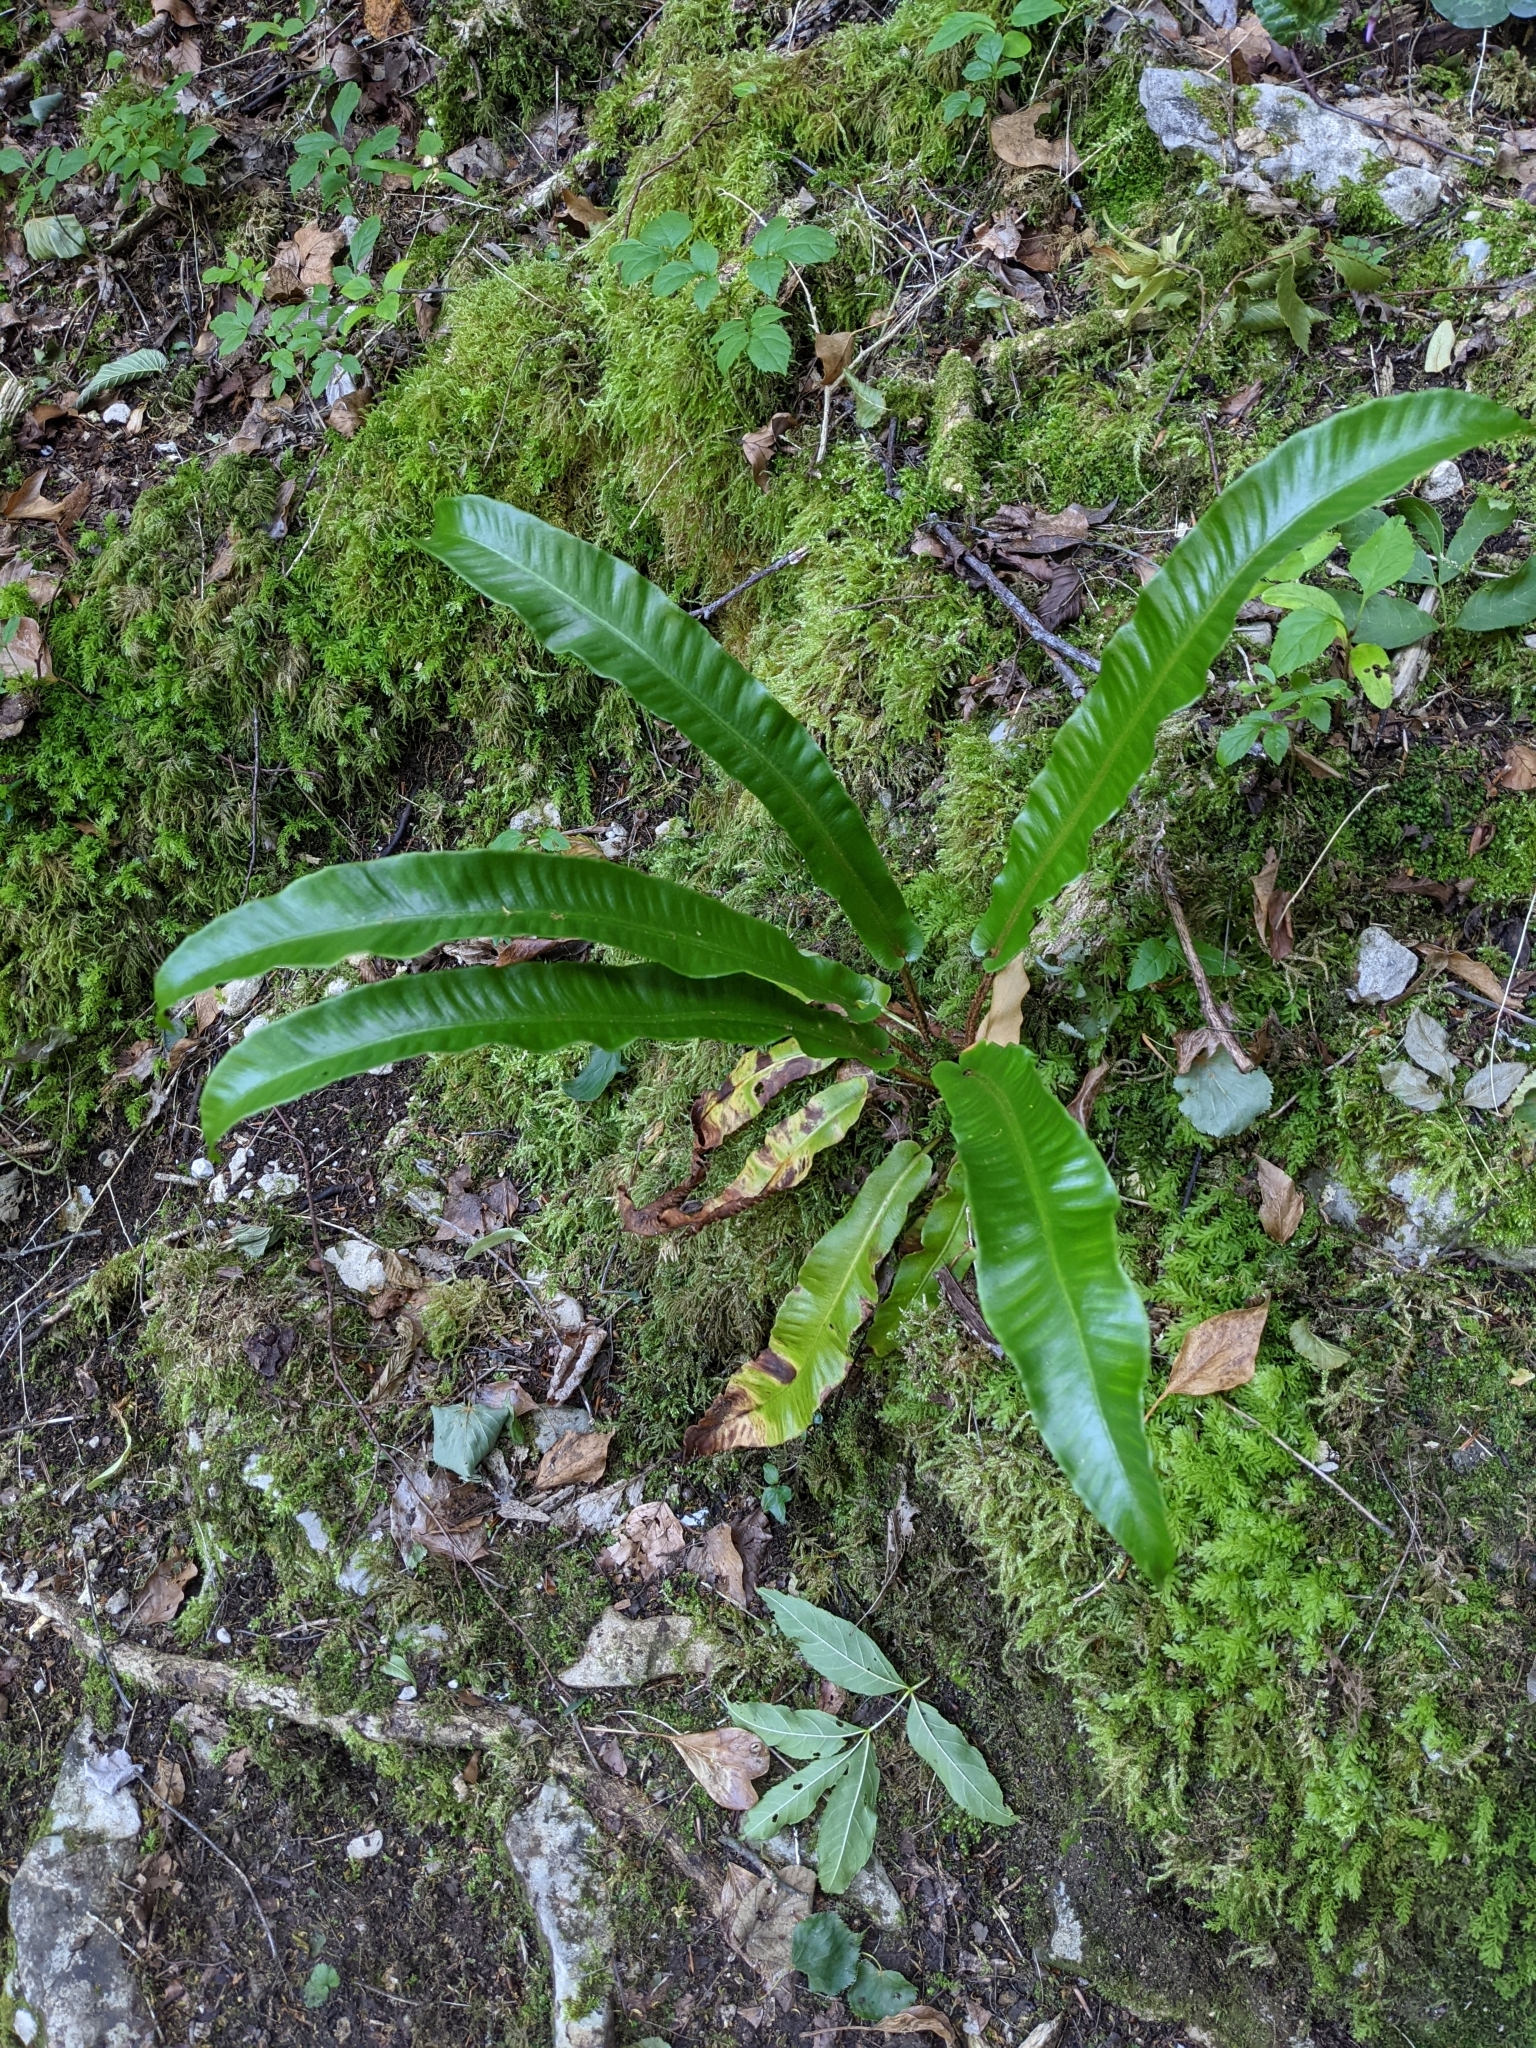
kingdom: Plantae
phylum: Tracheophyta
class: Polypodiopsida
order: Polypodiales
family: Aspleniaceae
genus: Asplenium
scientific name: Asplenium scolopendrium
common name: Hart's-tongue fern
